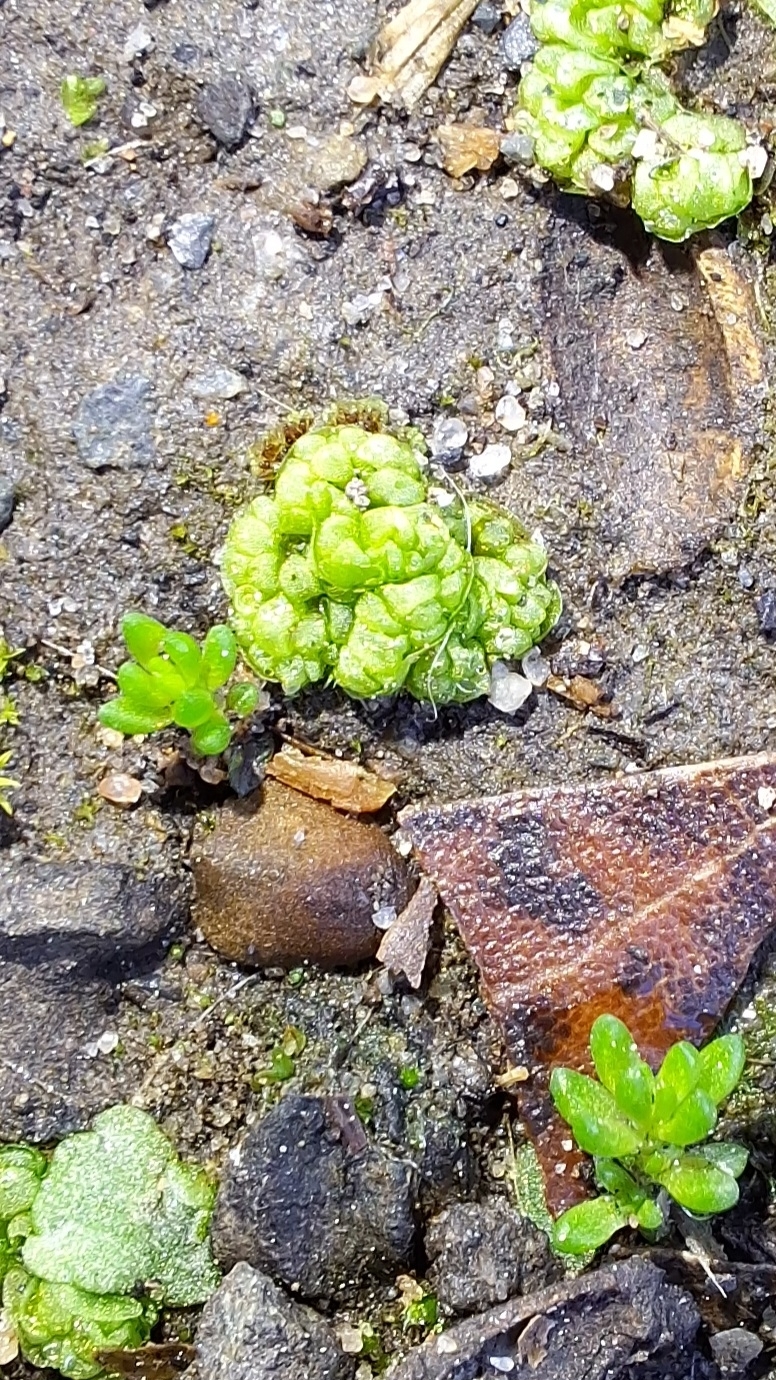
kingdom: Plantae
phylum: Marchantiophyta
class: Marchantiopsida
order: Sphaerocarpales
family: Sphaerocarpaceae
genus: Sphaerocarpos
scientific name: Sphaerocarpos texanus
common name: Texas balloonwort
